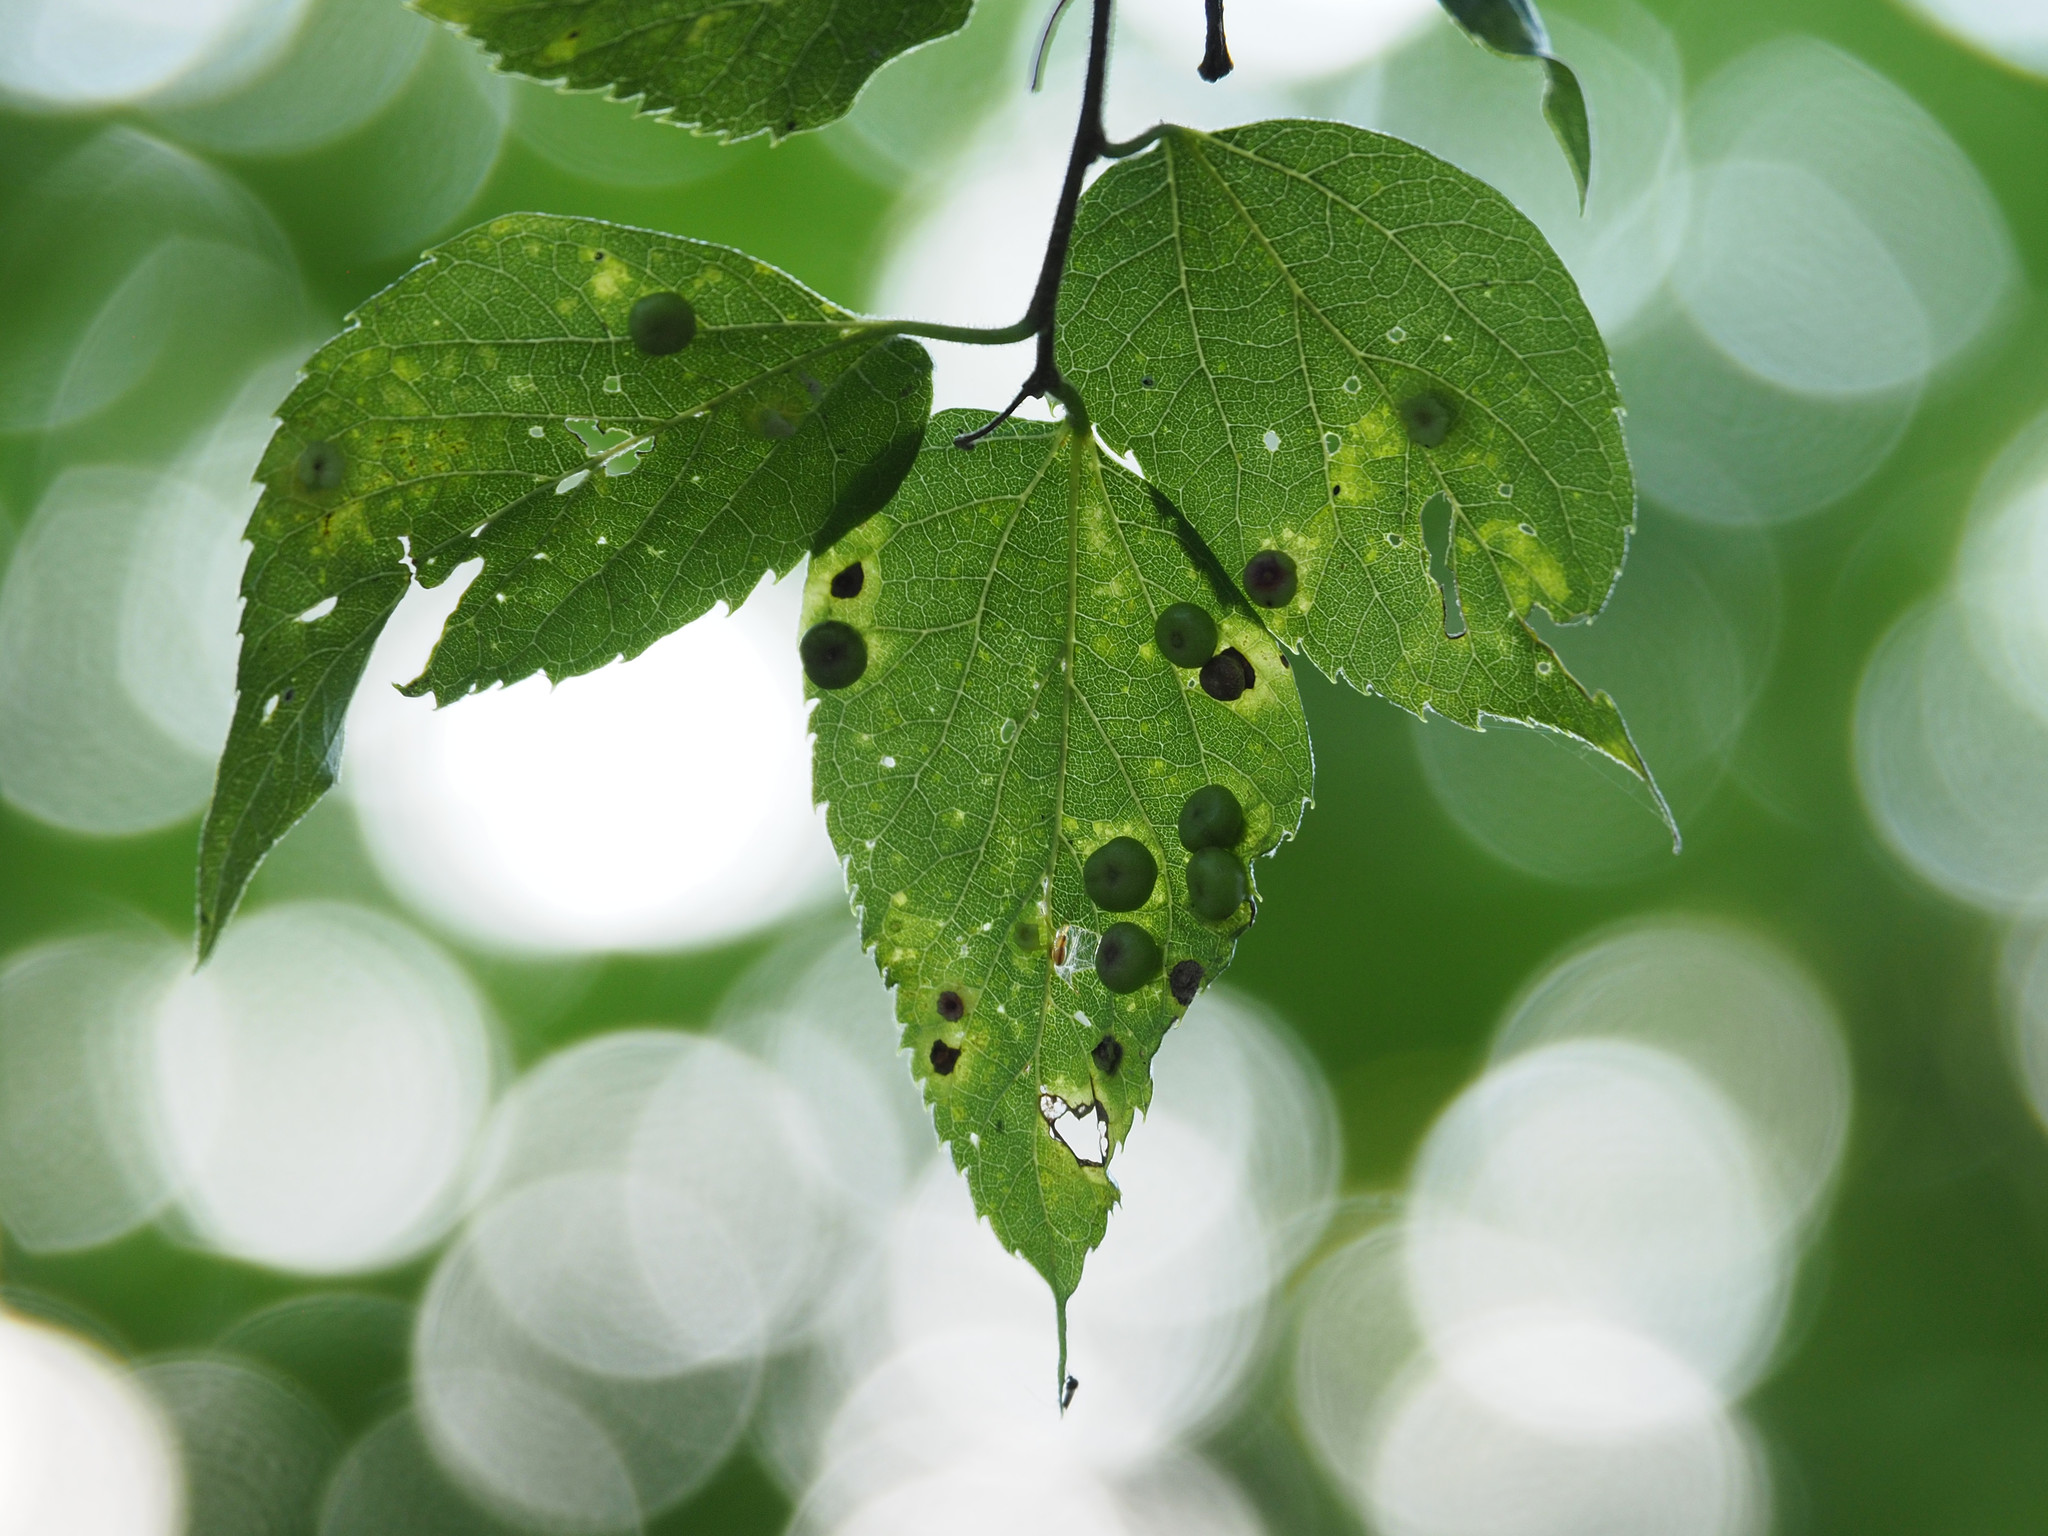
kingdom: Animalia
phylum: Arthropoda
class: Insecta
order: Hemiptera
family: Aphalaridae
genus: Pachypsylla
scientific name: Pachypsylla celtidismamma
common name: Hackberry nipplegall psyllid
